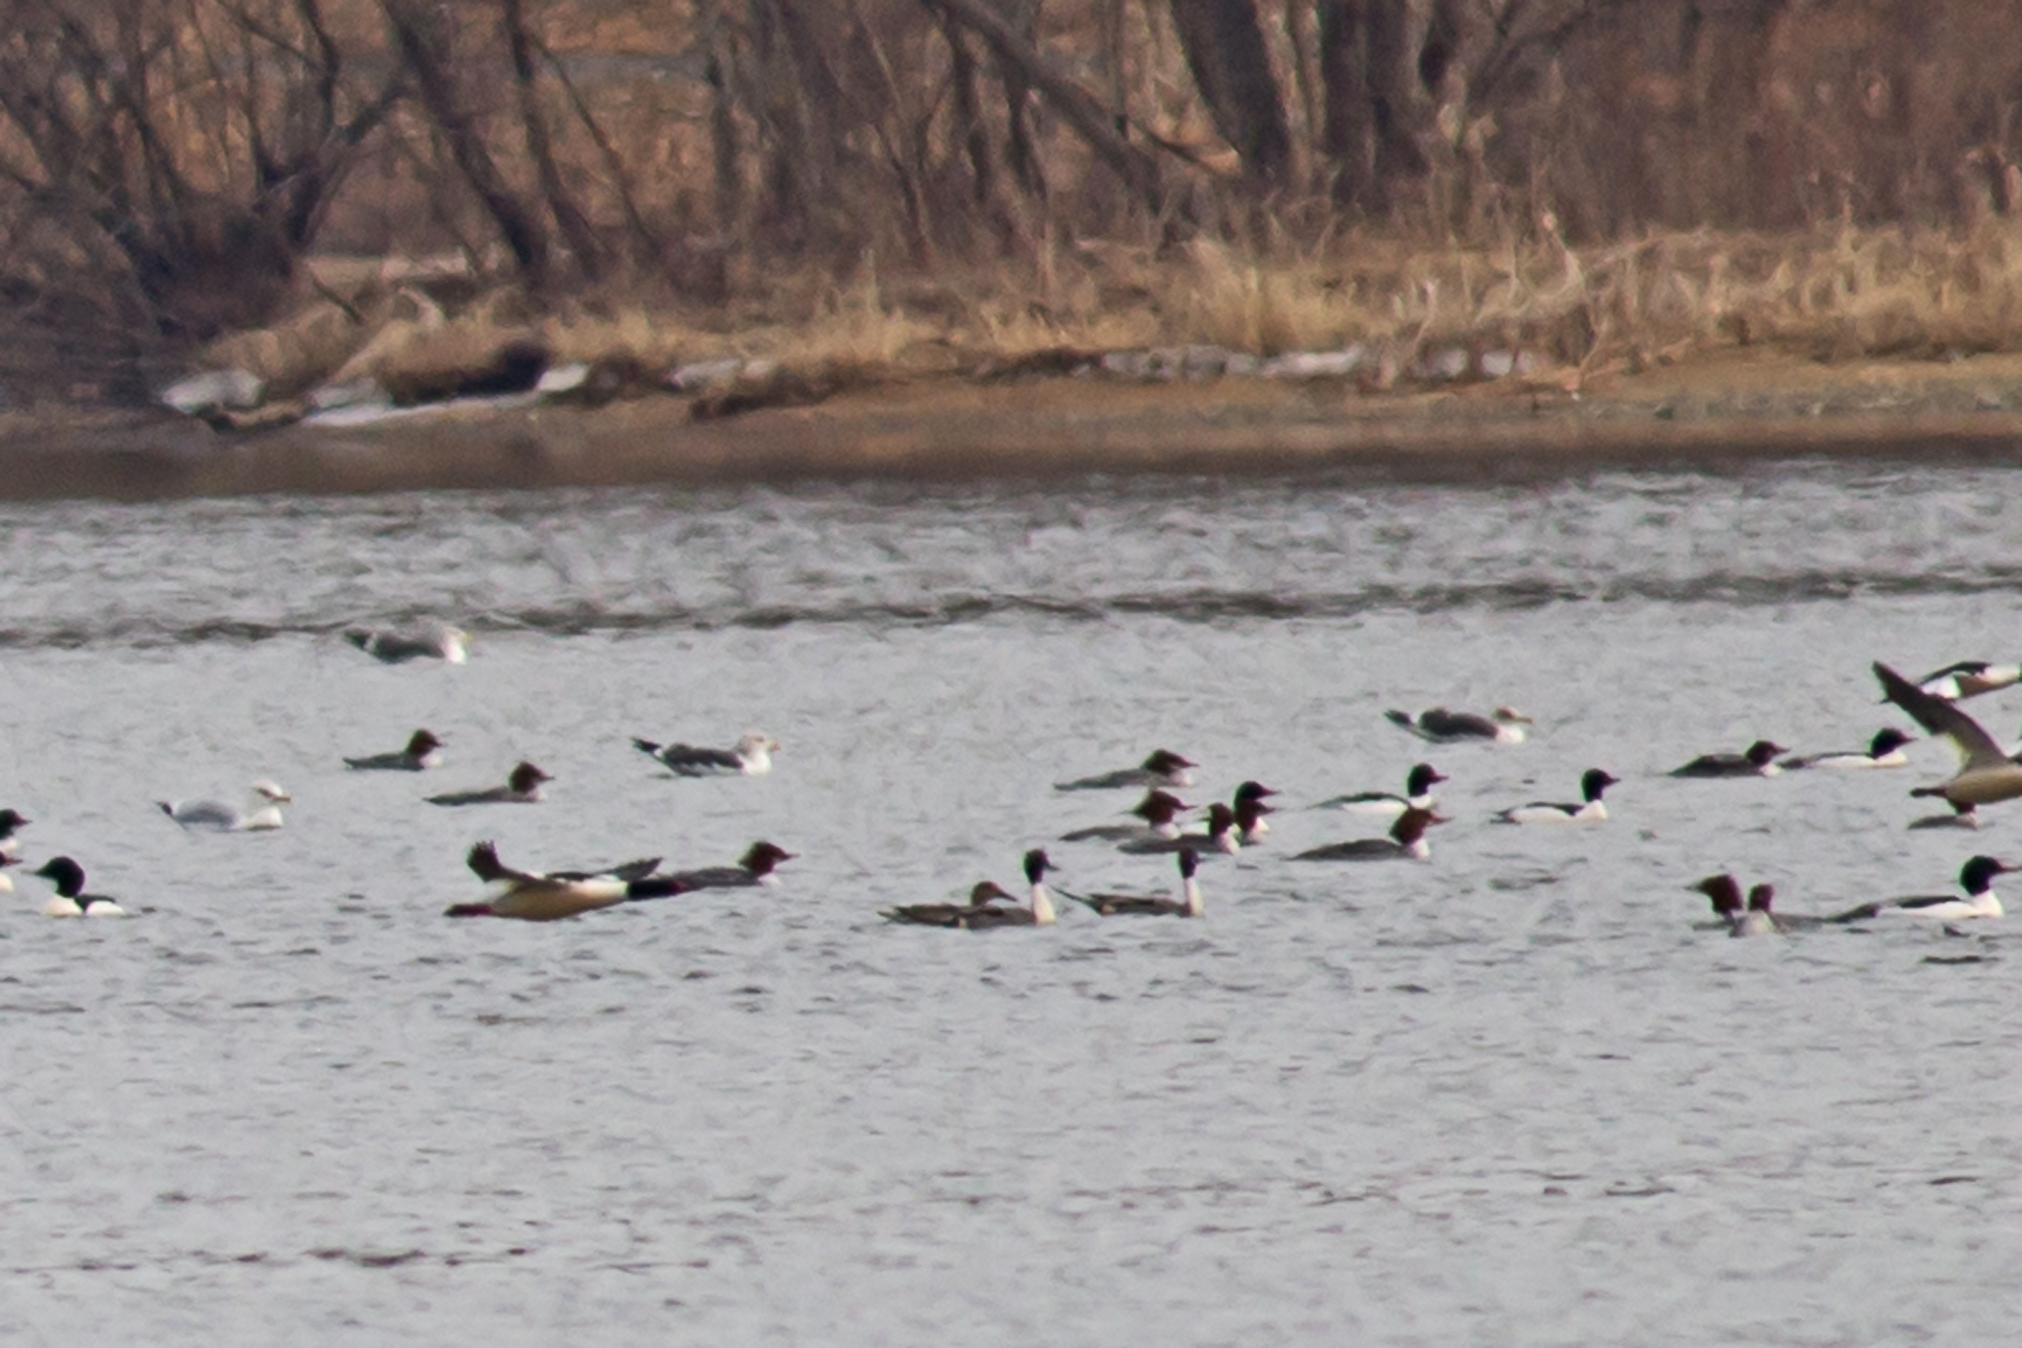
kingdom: Animalia
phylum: Chordata
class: Aves
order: Anseriformes
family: Anatidae
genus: Anas
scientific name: Anas acuta
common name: Northern pintail
